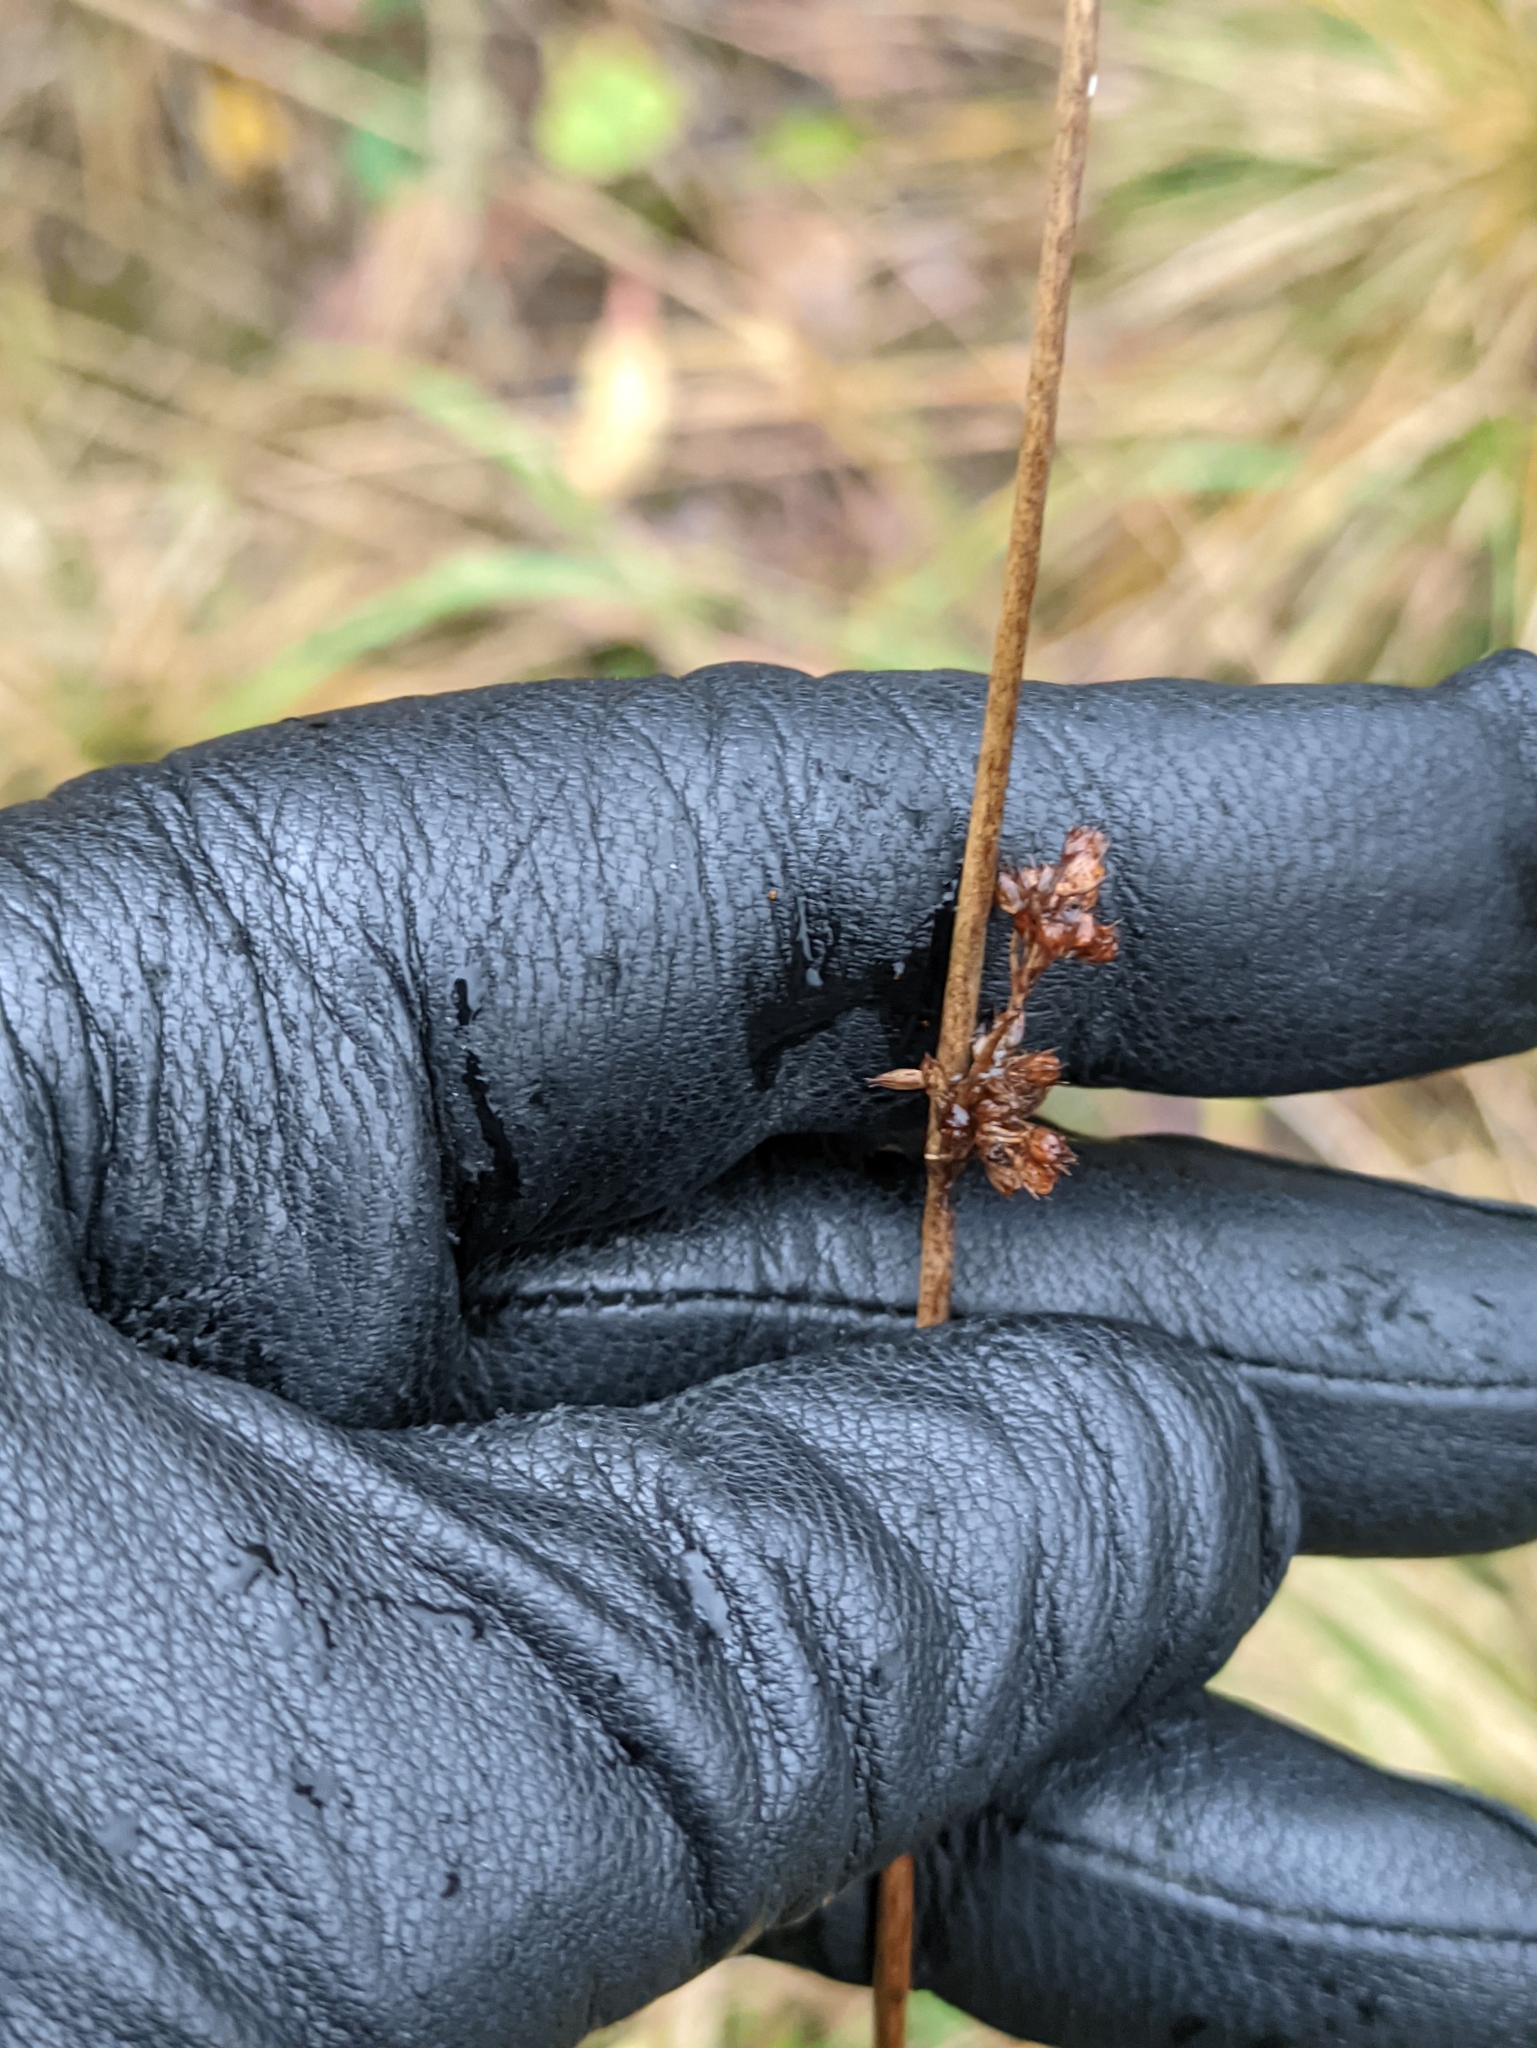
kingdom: Plantae
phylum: Tracheophyta
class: Liliopsida
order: Poales
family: Juncaceae
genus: Juncus
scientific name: Juncus effusus
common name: Soft rush
